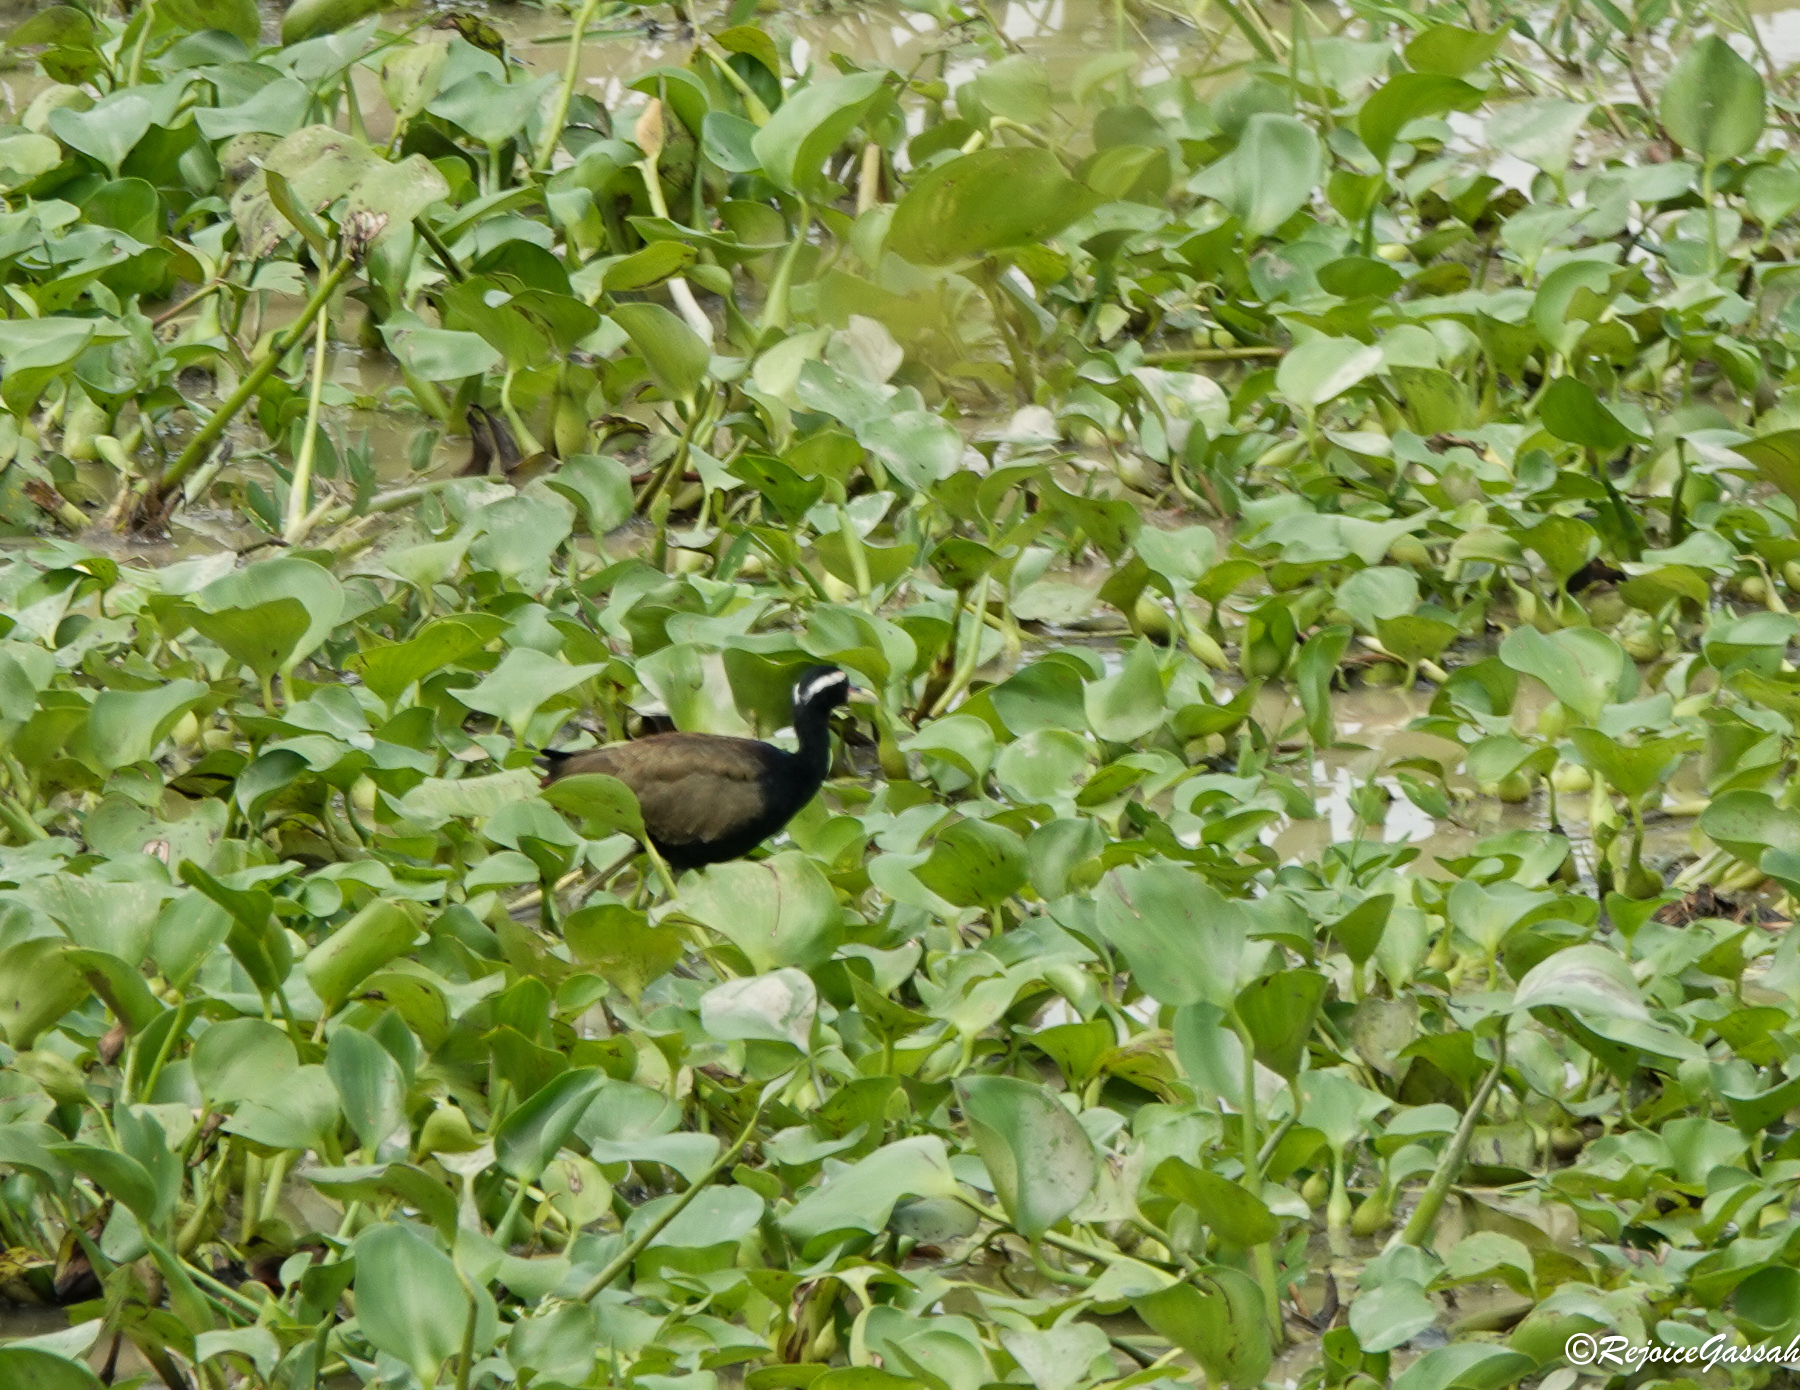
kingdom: Animalia
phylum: Chordata
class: Aves
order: Charadriiformes
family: Jacanidae
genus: Metopidius
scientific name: Metopidius indicus
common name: Bronze-winged jacana
